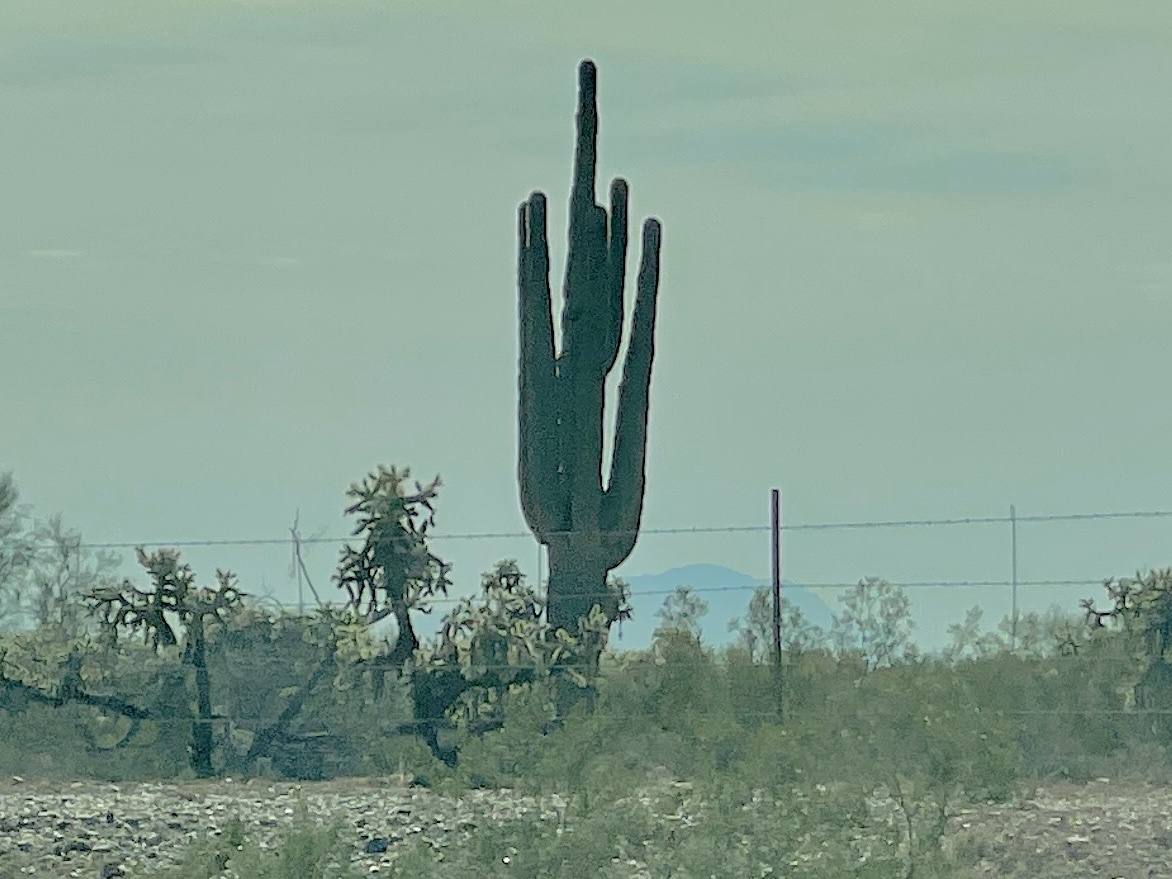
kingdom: Plantae
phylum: Tracheophyta
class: Magnoliopsida
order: Caryophyllales
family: Cactaceae
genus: Carnegiea
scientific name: Carnegiea gigantea
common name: Saguaro
